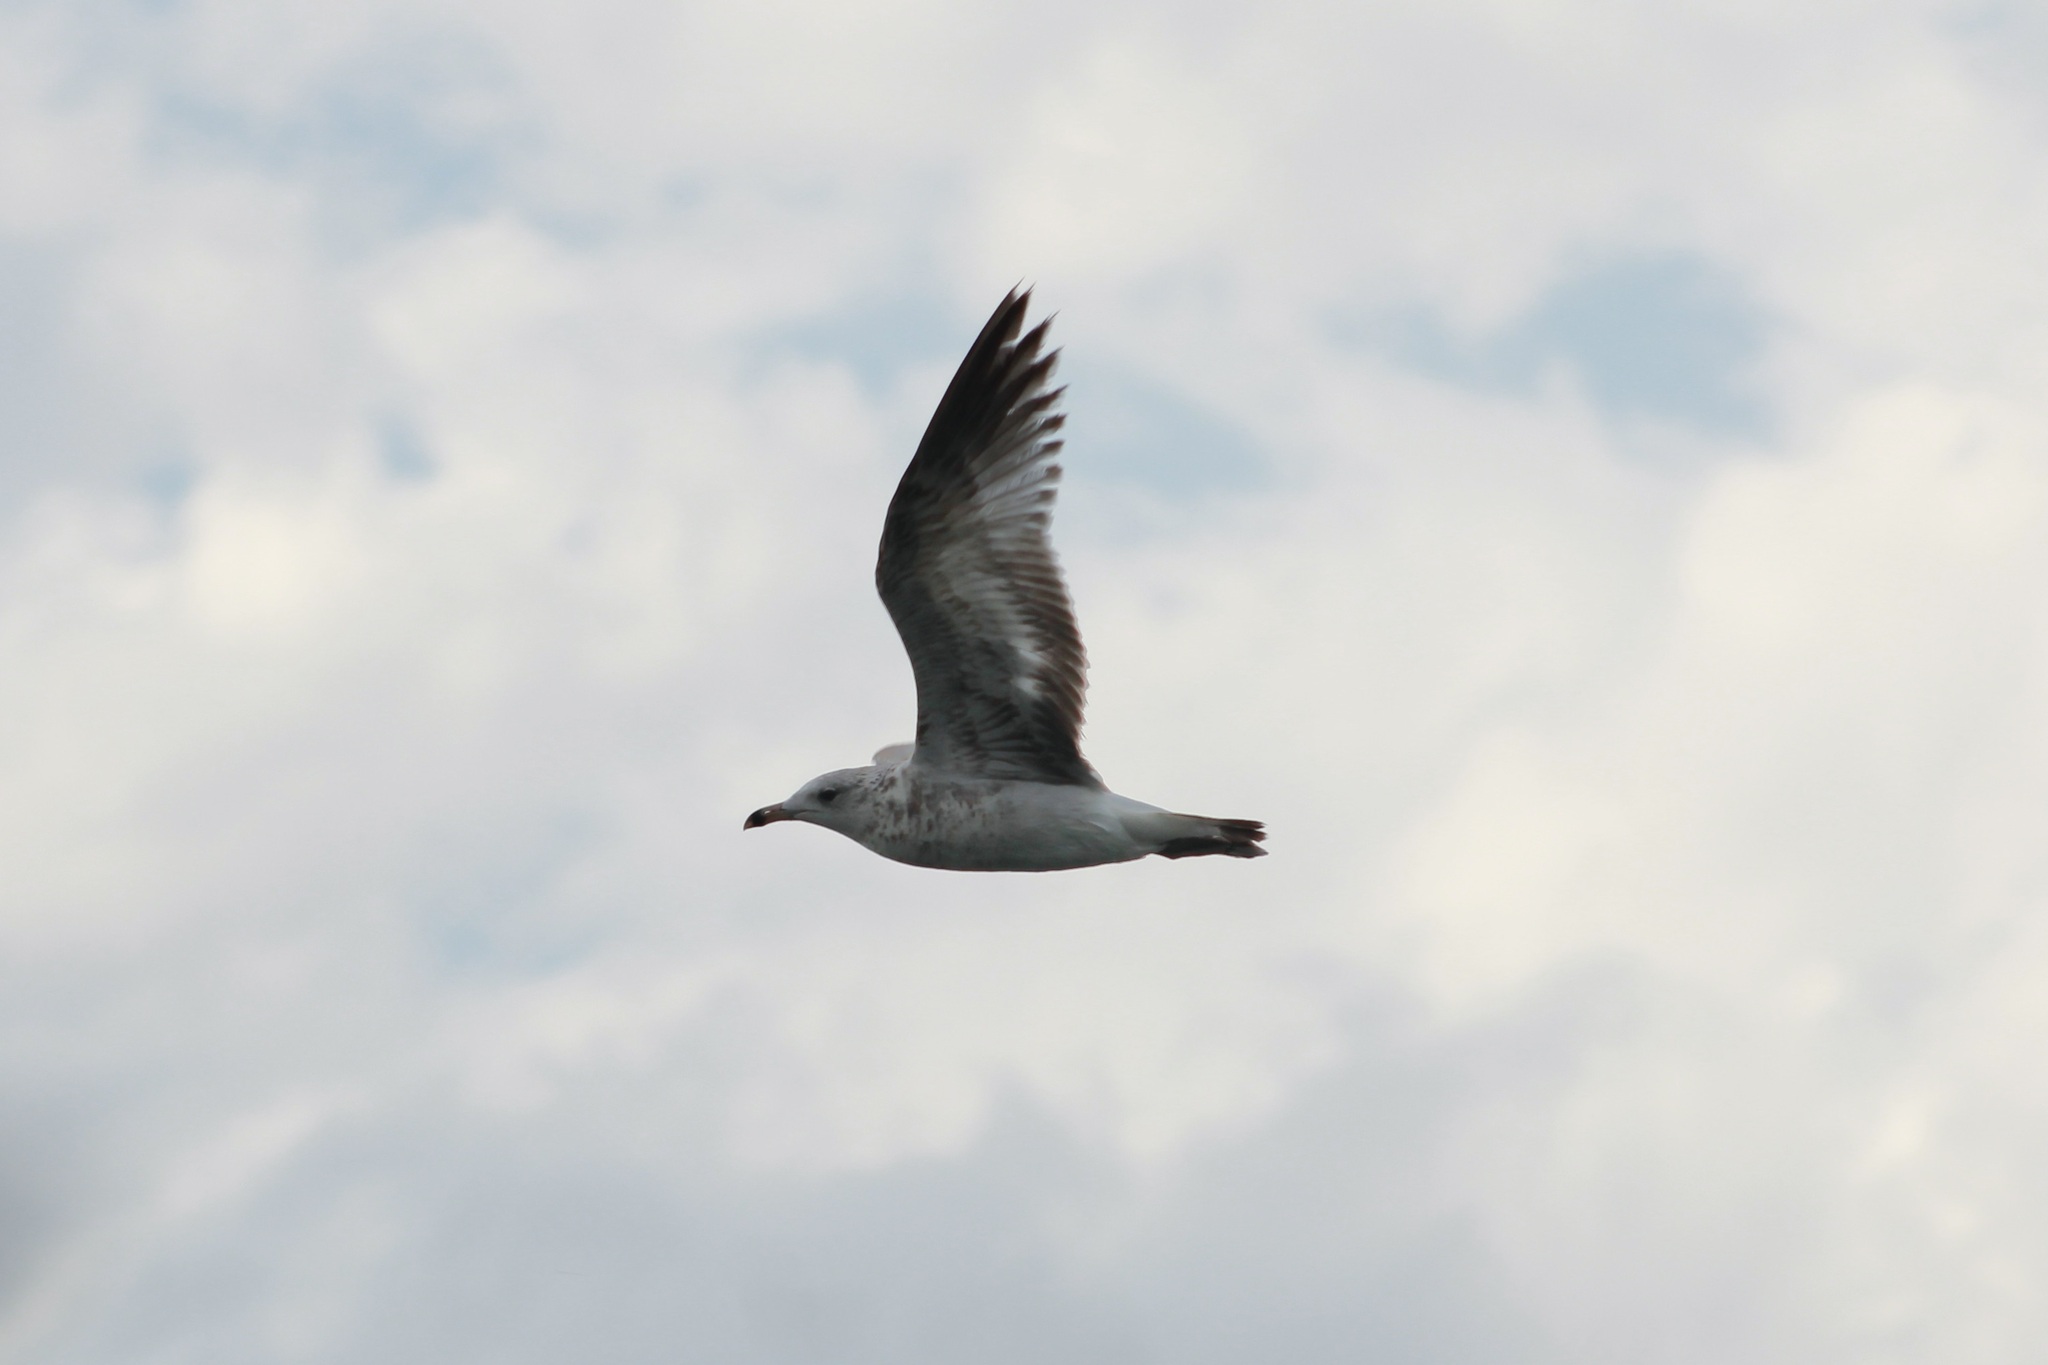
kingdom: Animalia
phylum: Chordata
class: Aves
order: Charadriiformes
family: Laridae
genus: Larus
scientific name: Larus delawarensis
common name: Ring-billed gull
